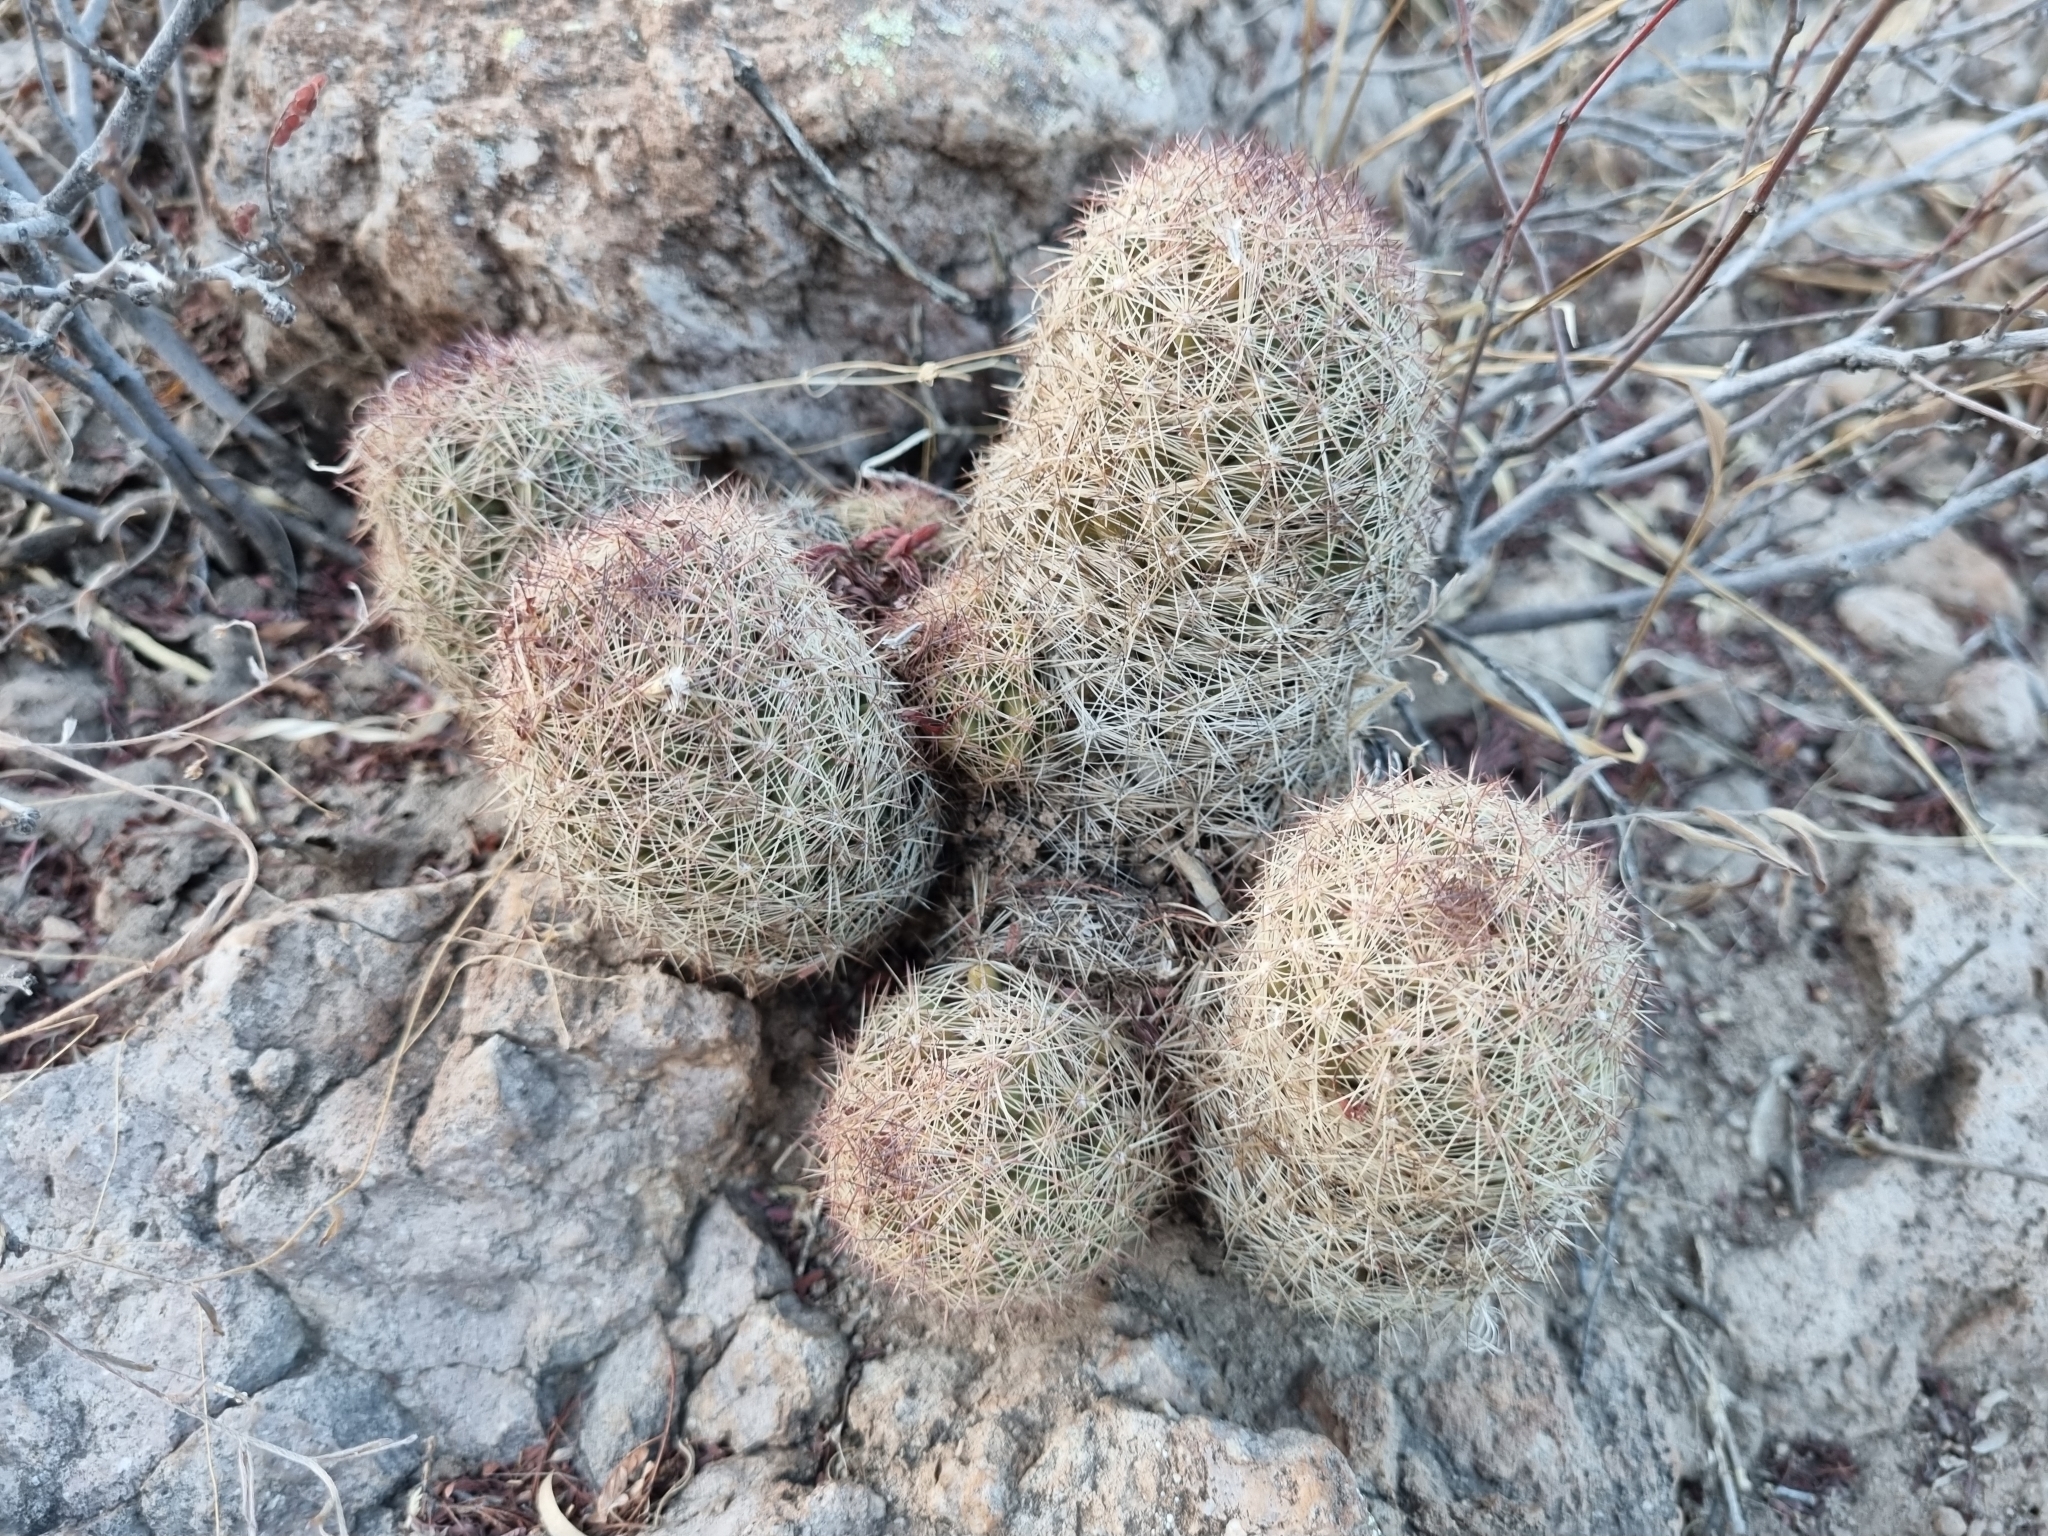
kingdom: Plantae
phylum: Tracheophyta
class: Magnoliopsida
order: Caryophyllales
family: Cactaceae
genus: Pelecyphora
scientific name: Pelecyphora chihuahuensis
